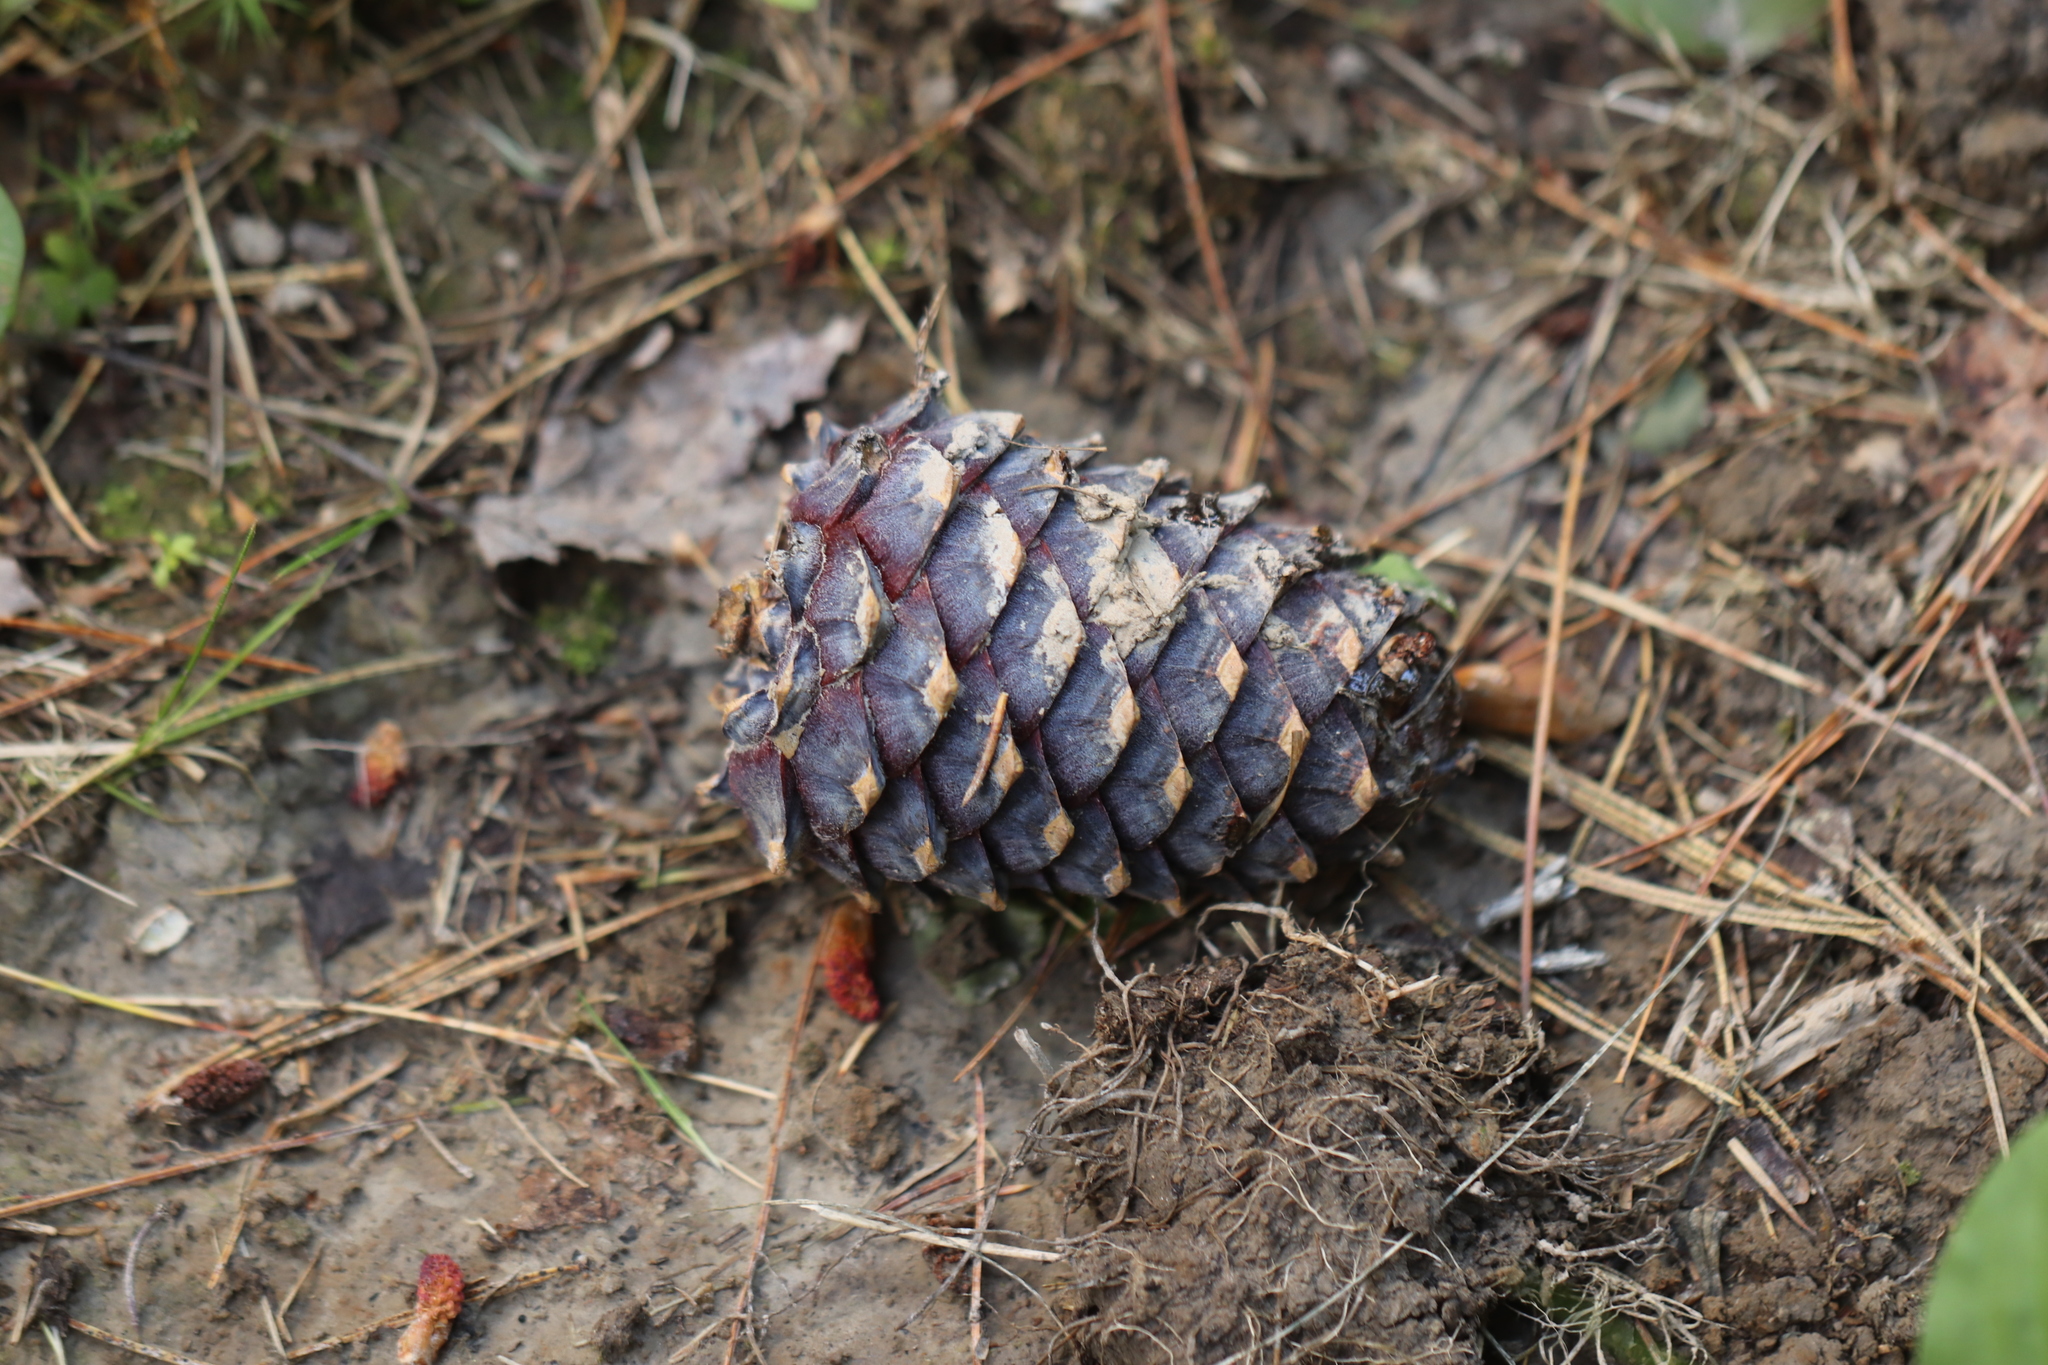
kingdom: Plantae
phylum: Tracheophyta
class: Pinopsida
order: Pinales
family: Pinaceae
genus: Pinus
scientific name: Pinus sibirica
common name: Siberian pine
